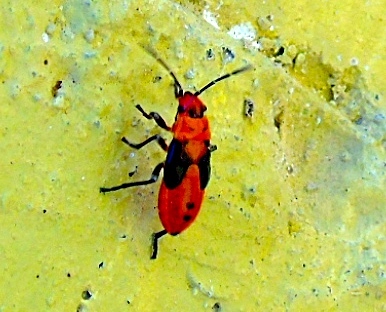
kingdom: Animalia
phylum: Arthropoda
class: Insecta
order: Hemiptera
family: Lygaeidae
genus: Lygaeus
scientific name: Lygaeus analis
